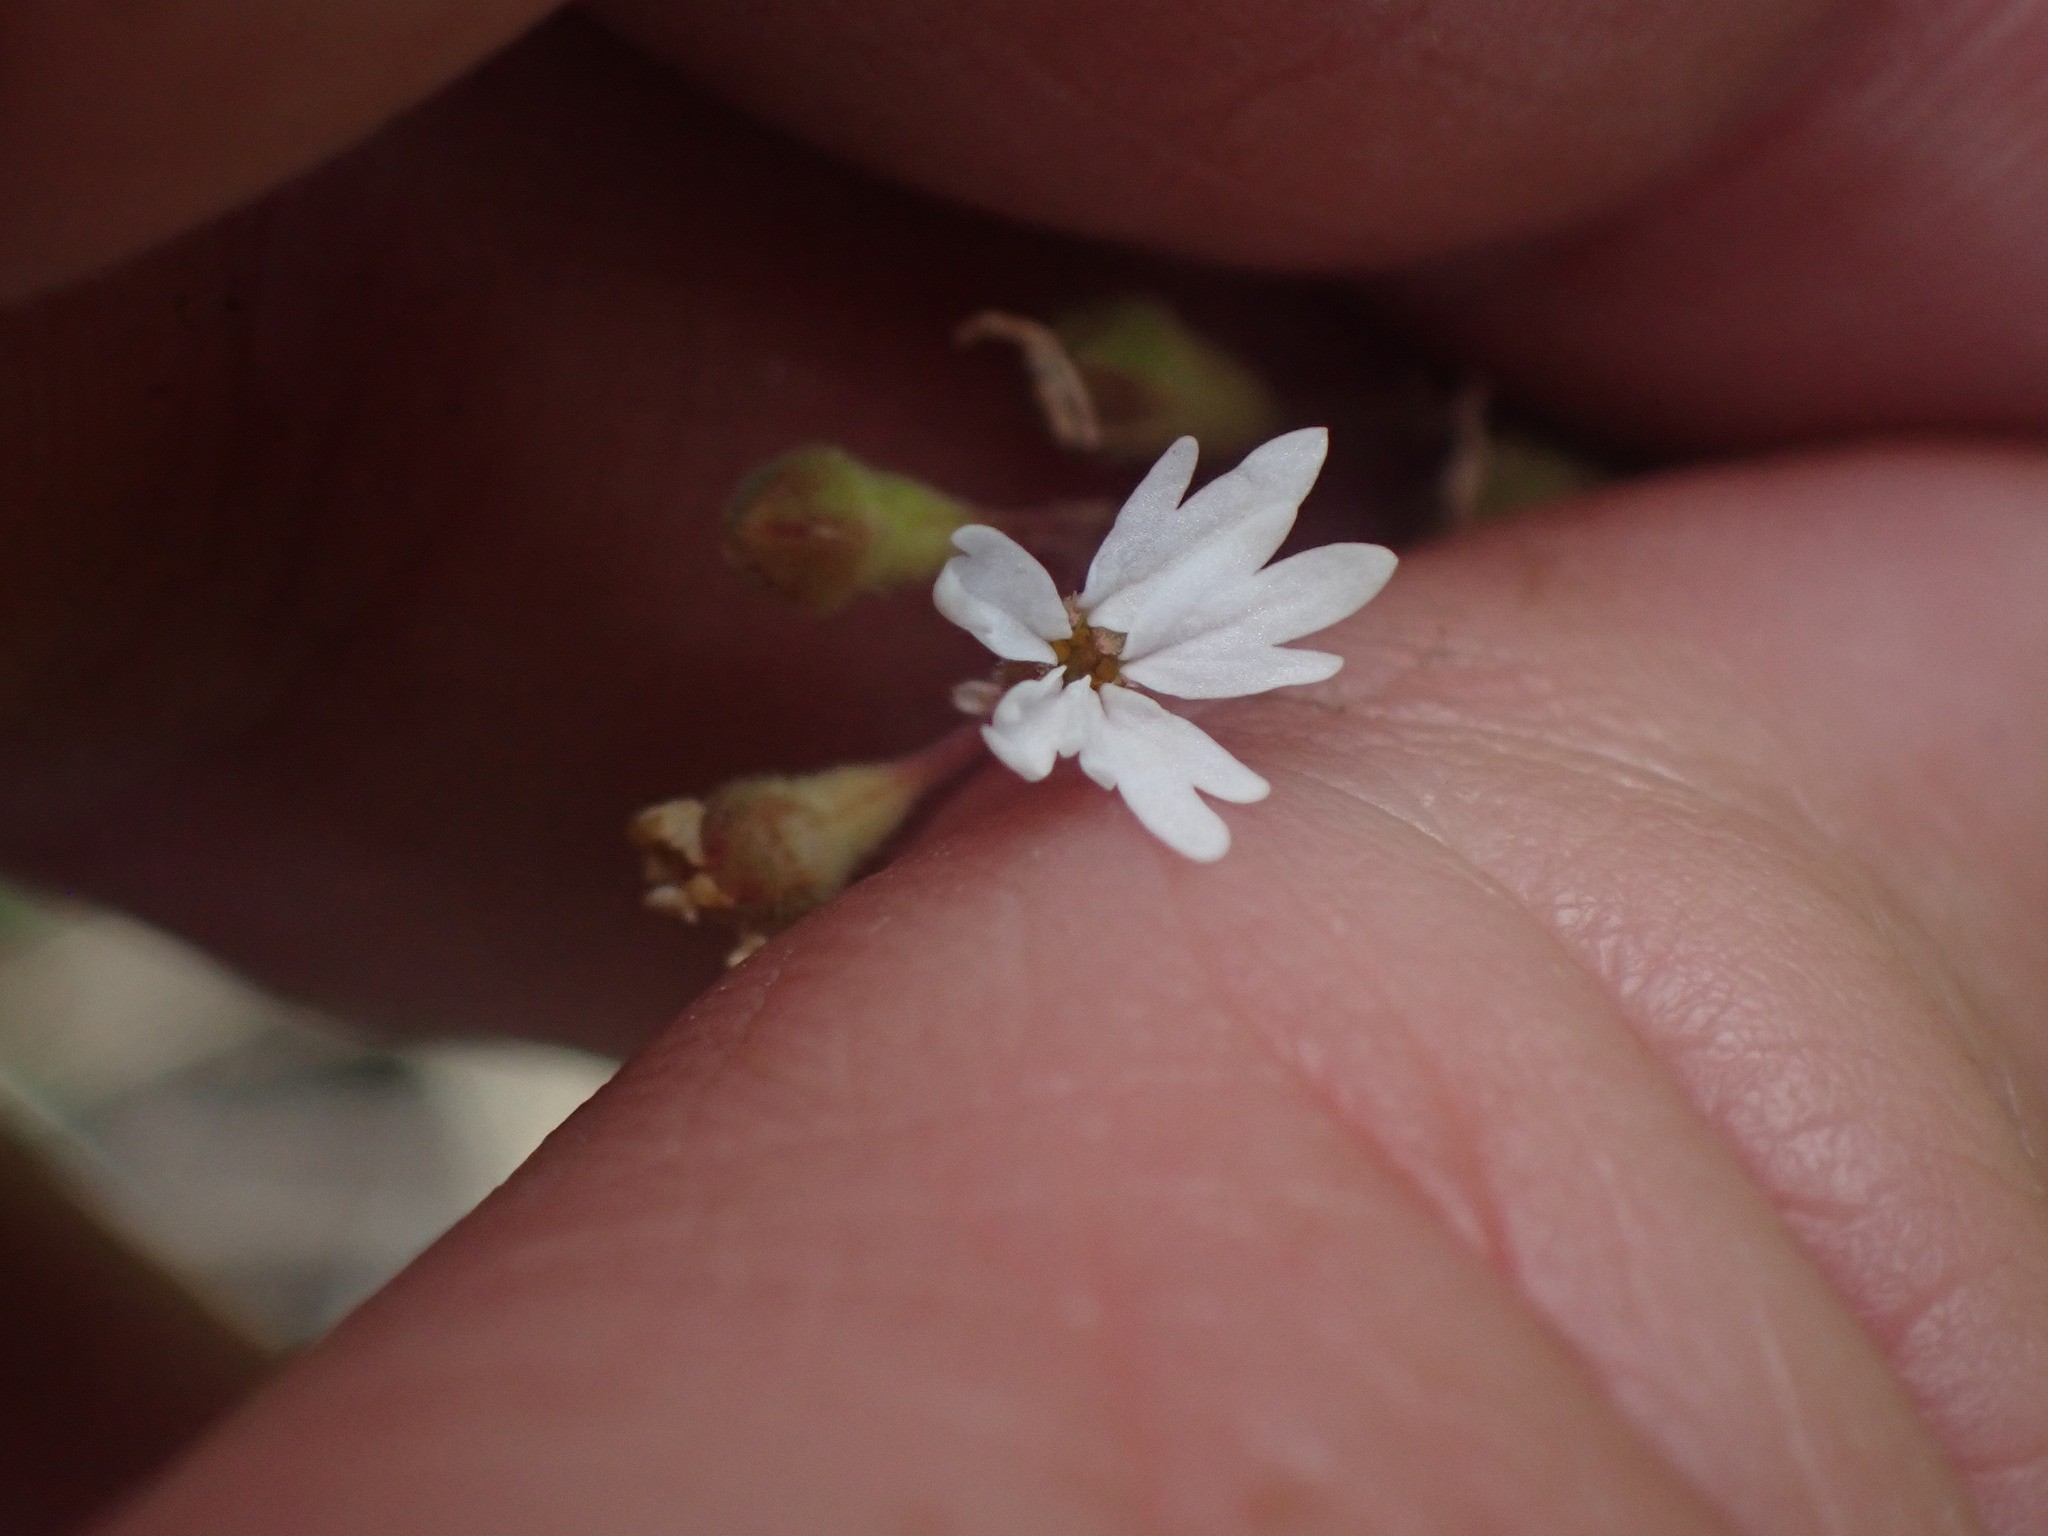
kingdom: Plantae
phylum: Tracheophyta
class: Magnoliopsida
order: Saxifragales
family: Saxifragaceae
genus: Lithophragma
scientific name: Lithophragma parviflorum
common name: Small-flowered fringe-cup
